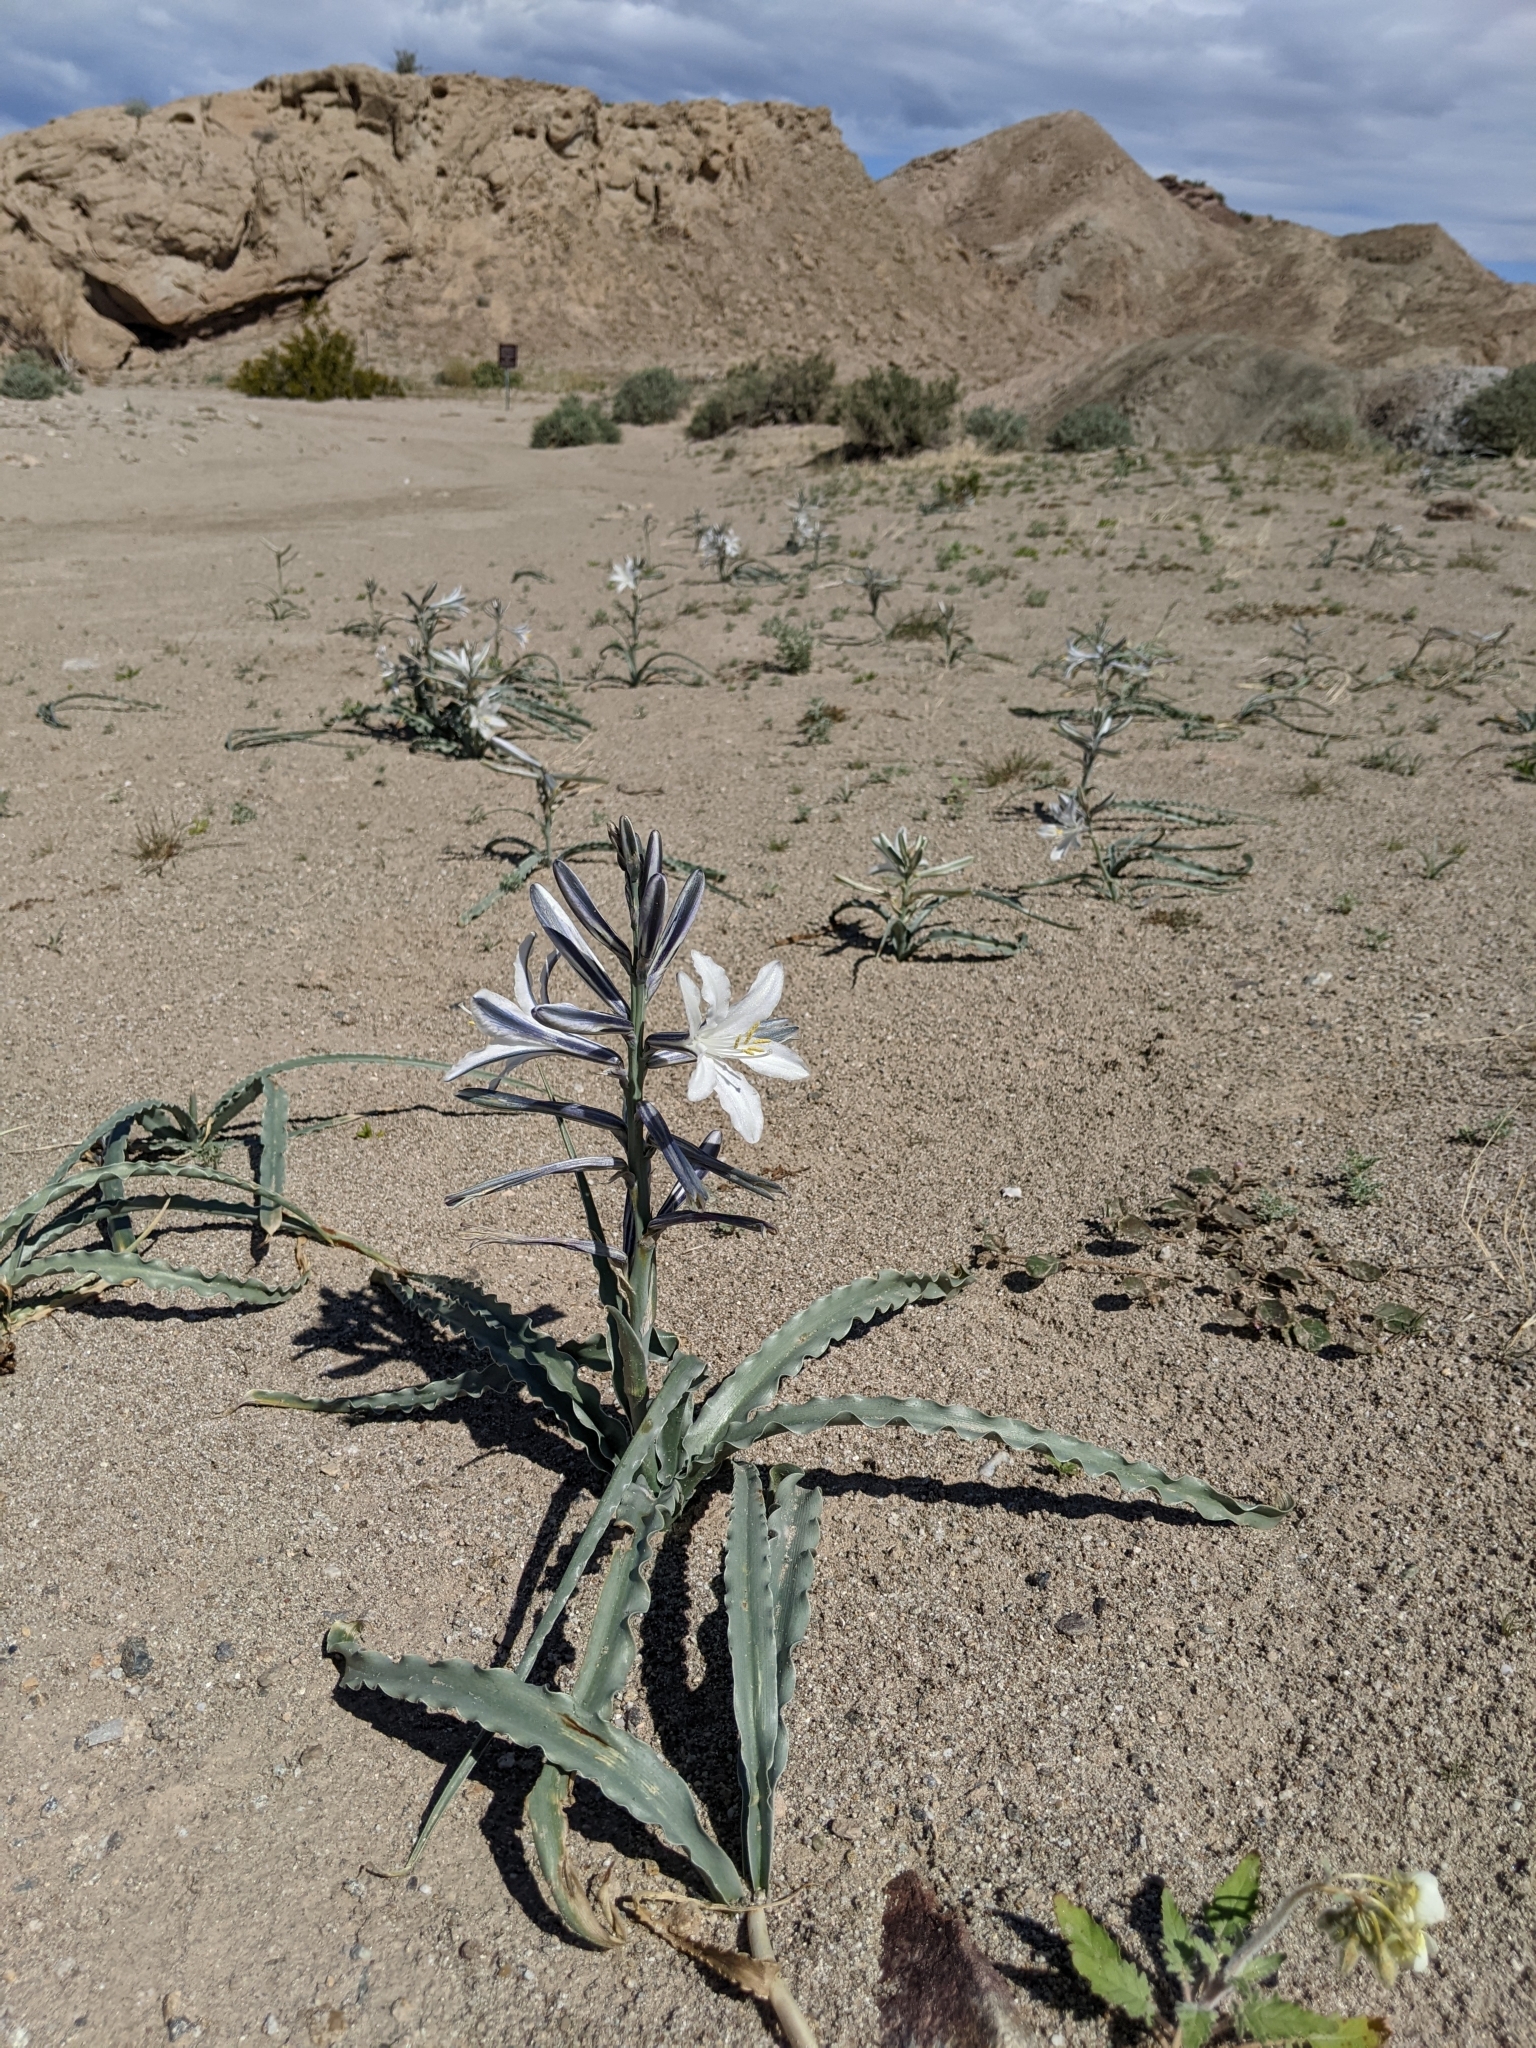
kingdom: Plantae
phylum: Tracheophyta
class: Liliopsida
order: Asparagales
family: Asparagaceae
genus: Hesperocallis
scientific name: Hesperocallis undulata
